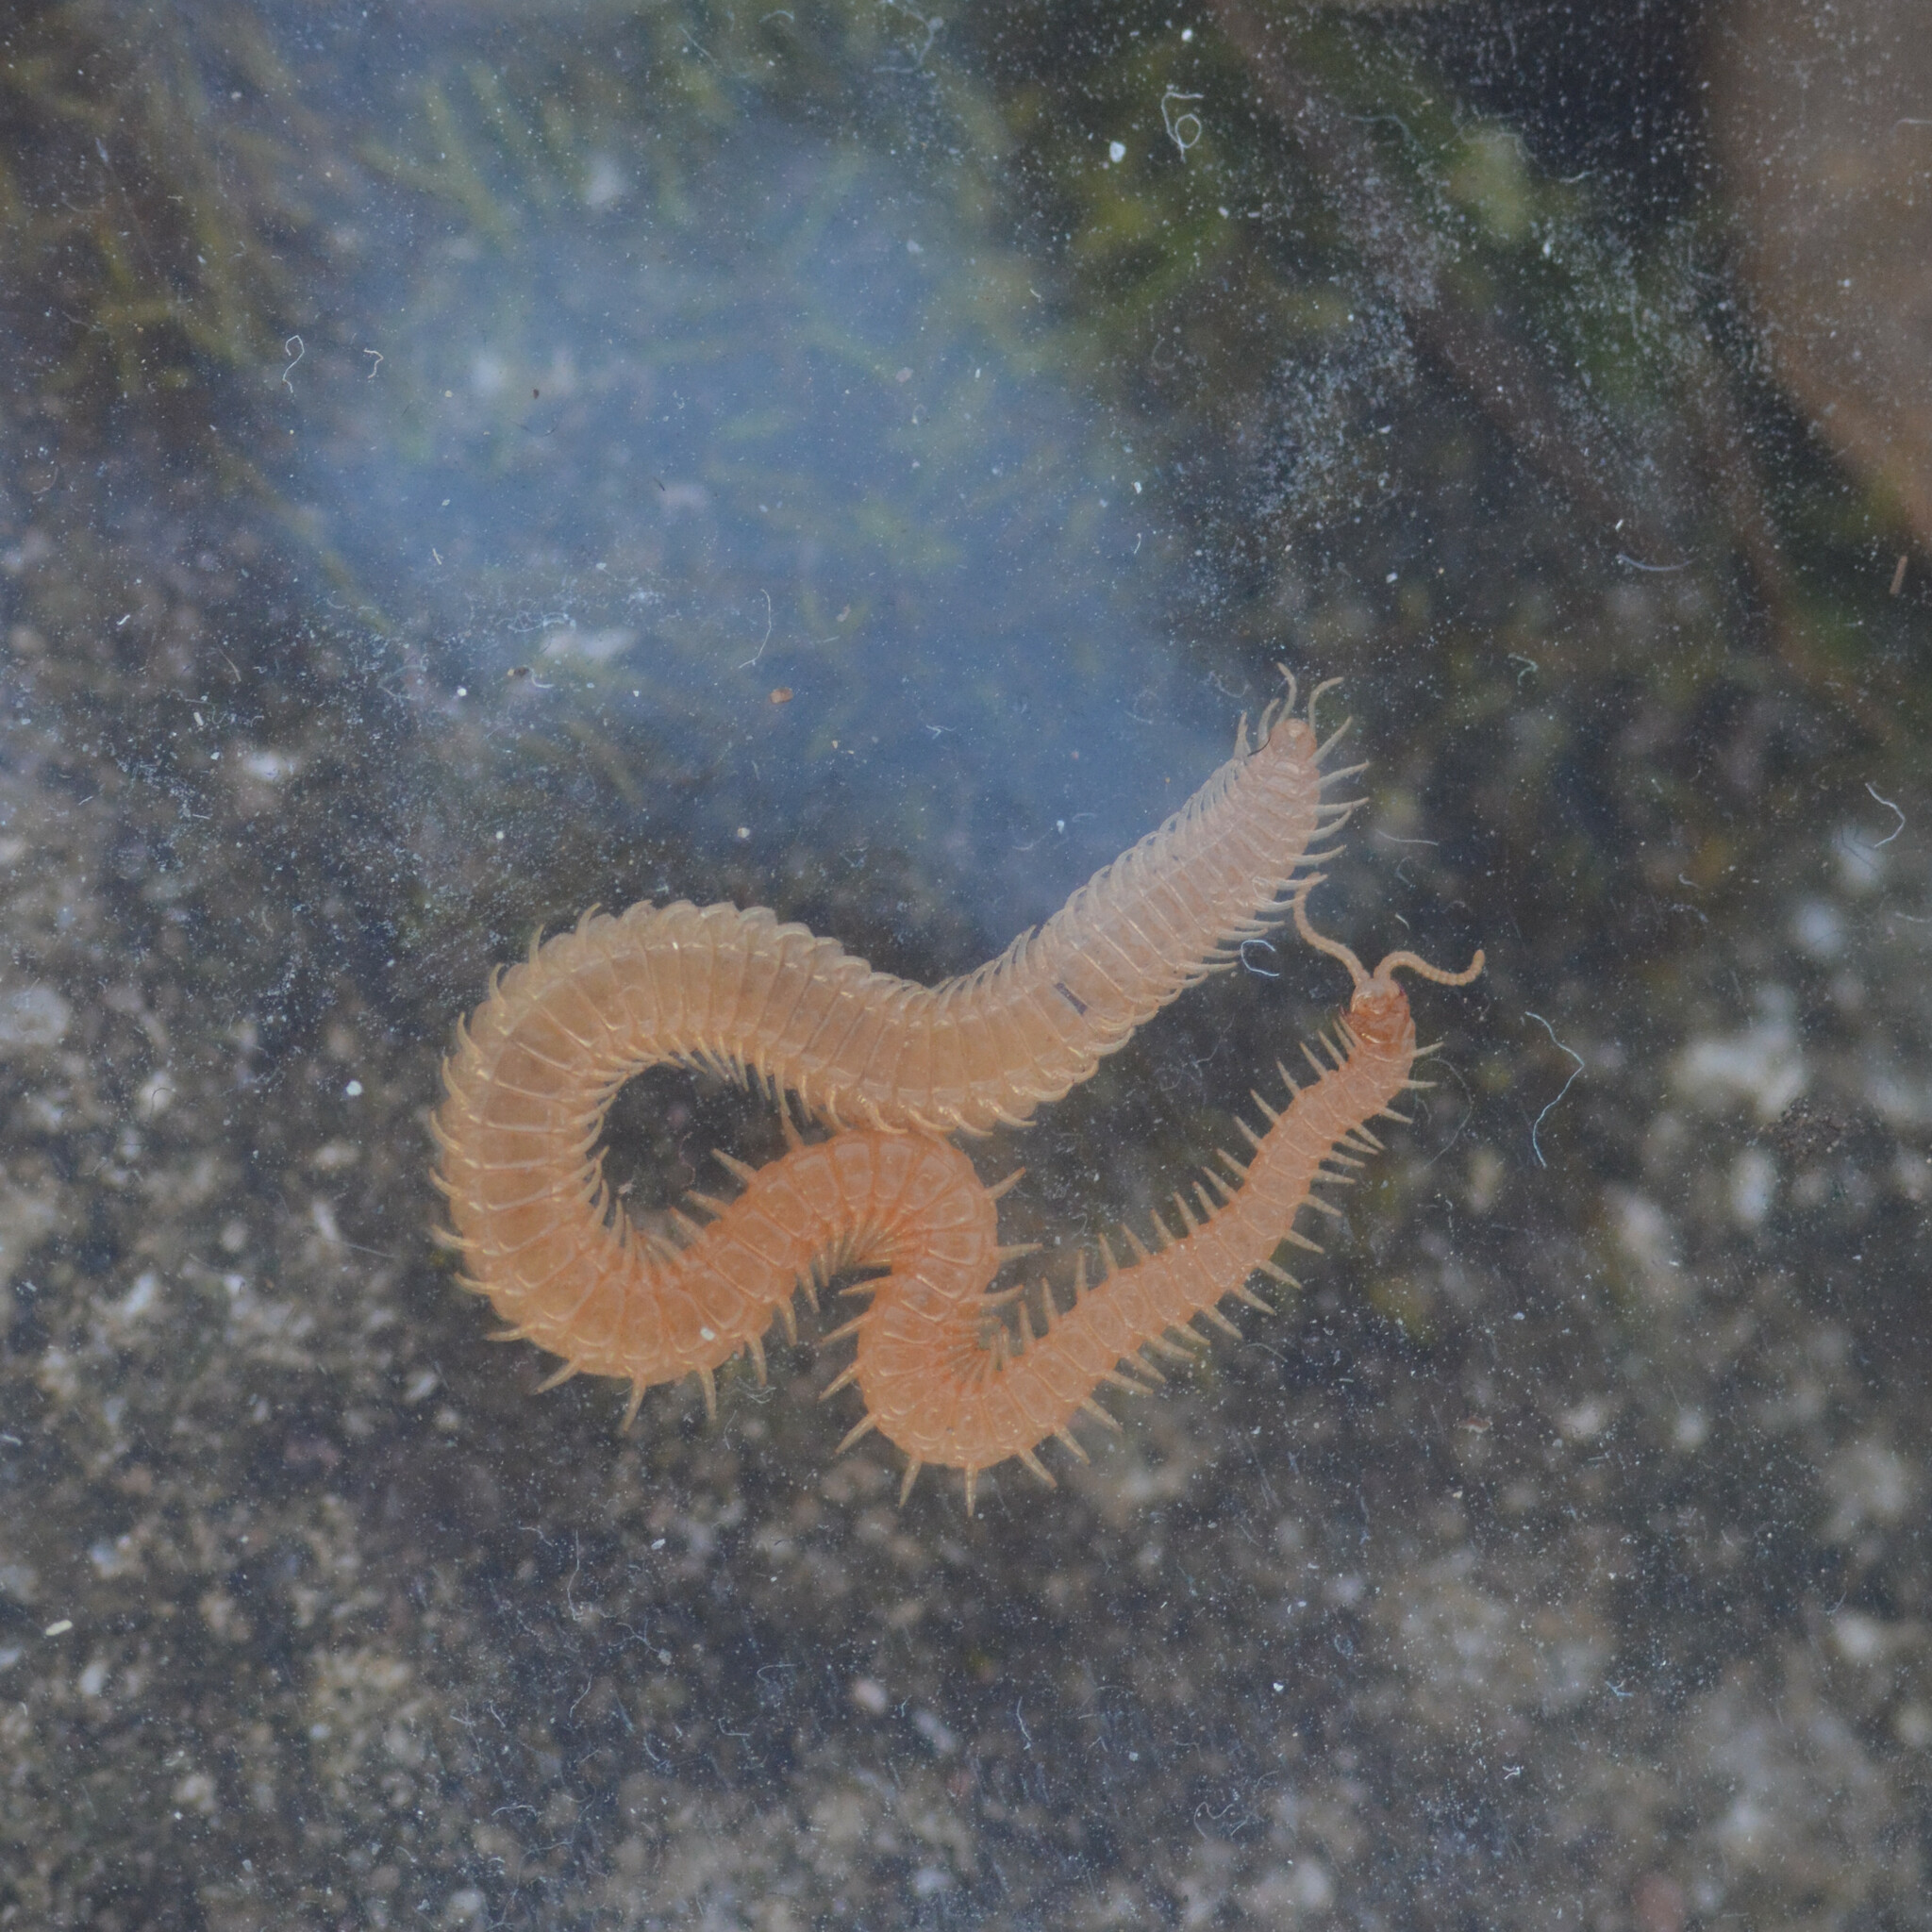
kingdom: Animalia
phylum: Arthropoda
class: Chilopoda
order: Geophilomorpha
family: Himantariidae
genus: Stigmatogaster
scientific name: Stigmatogaster subterranea
